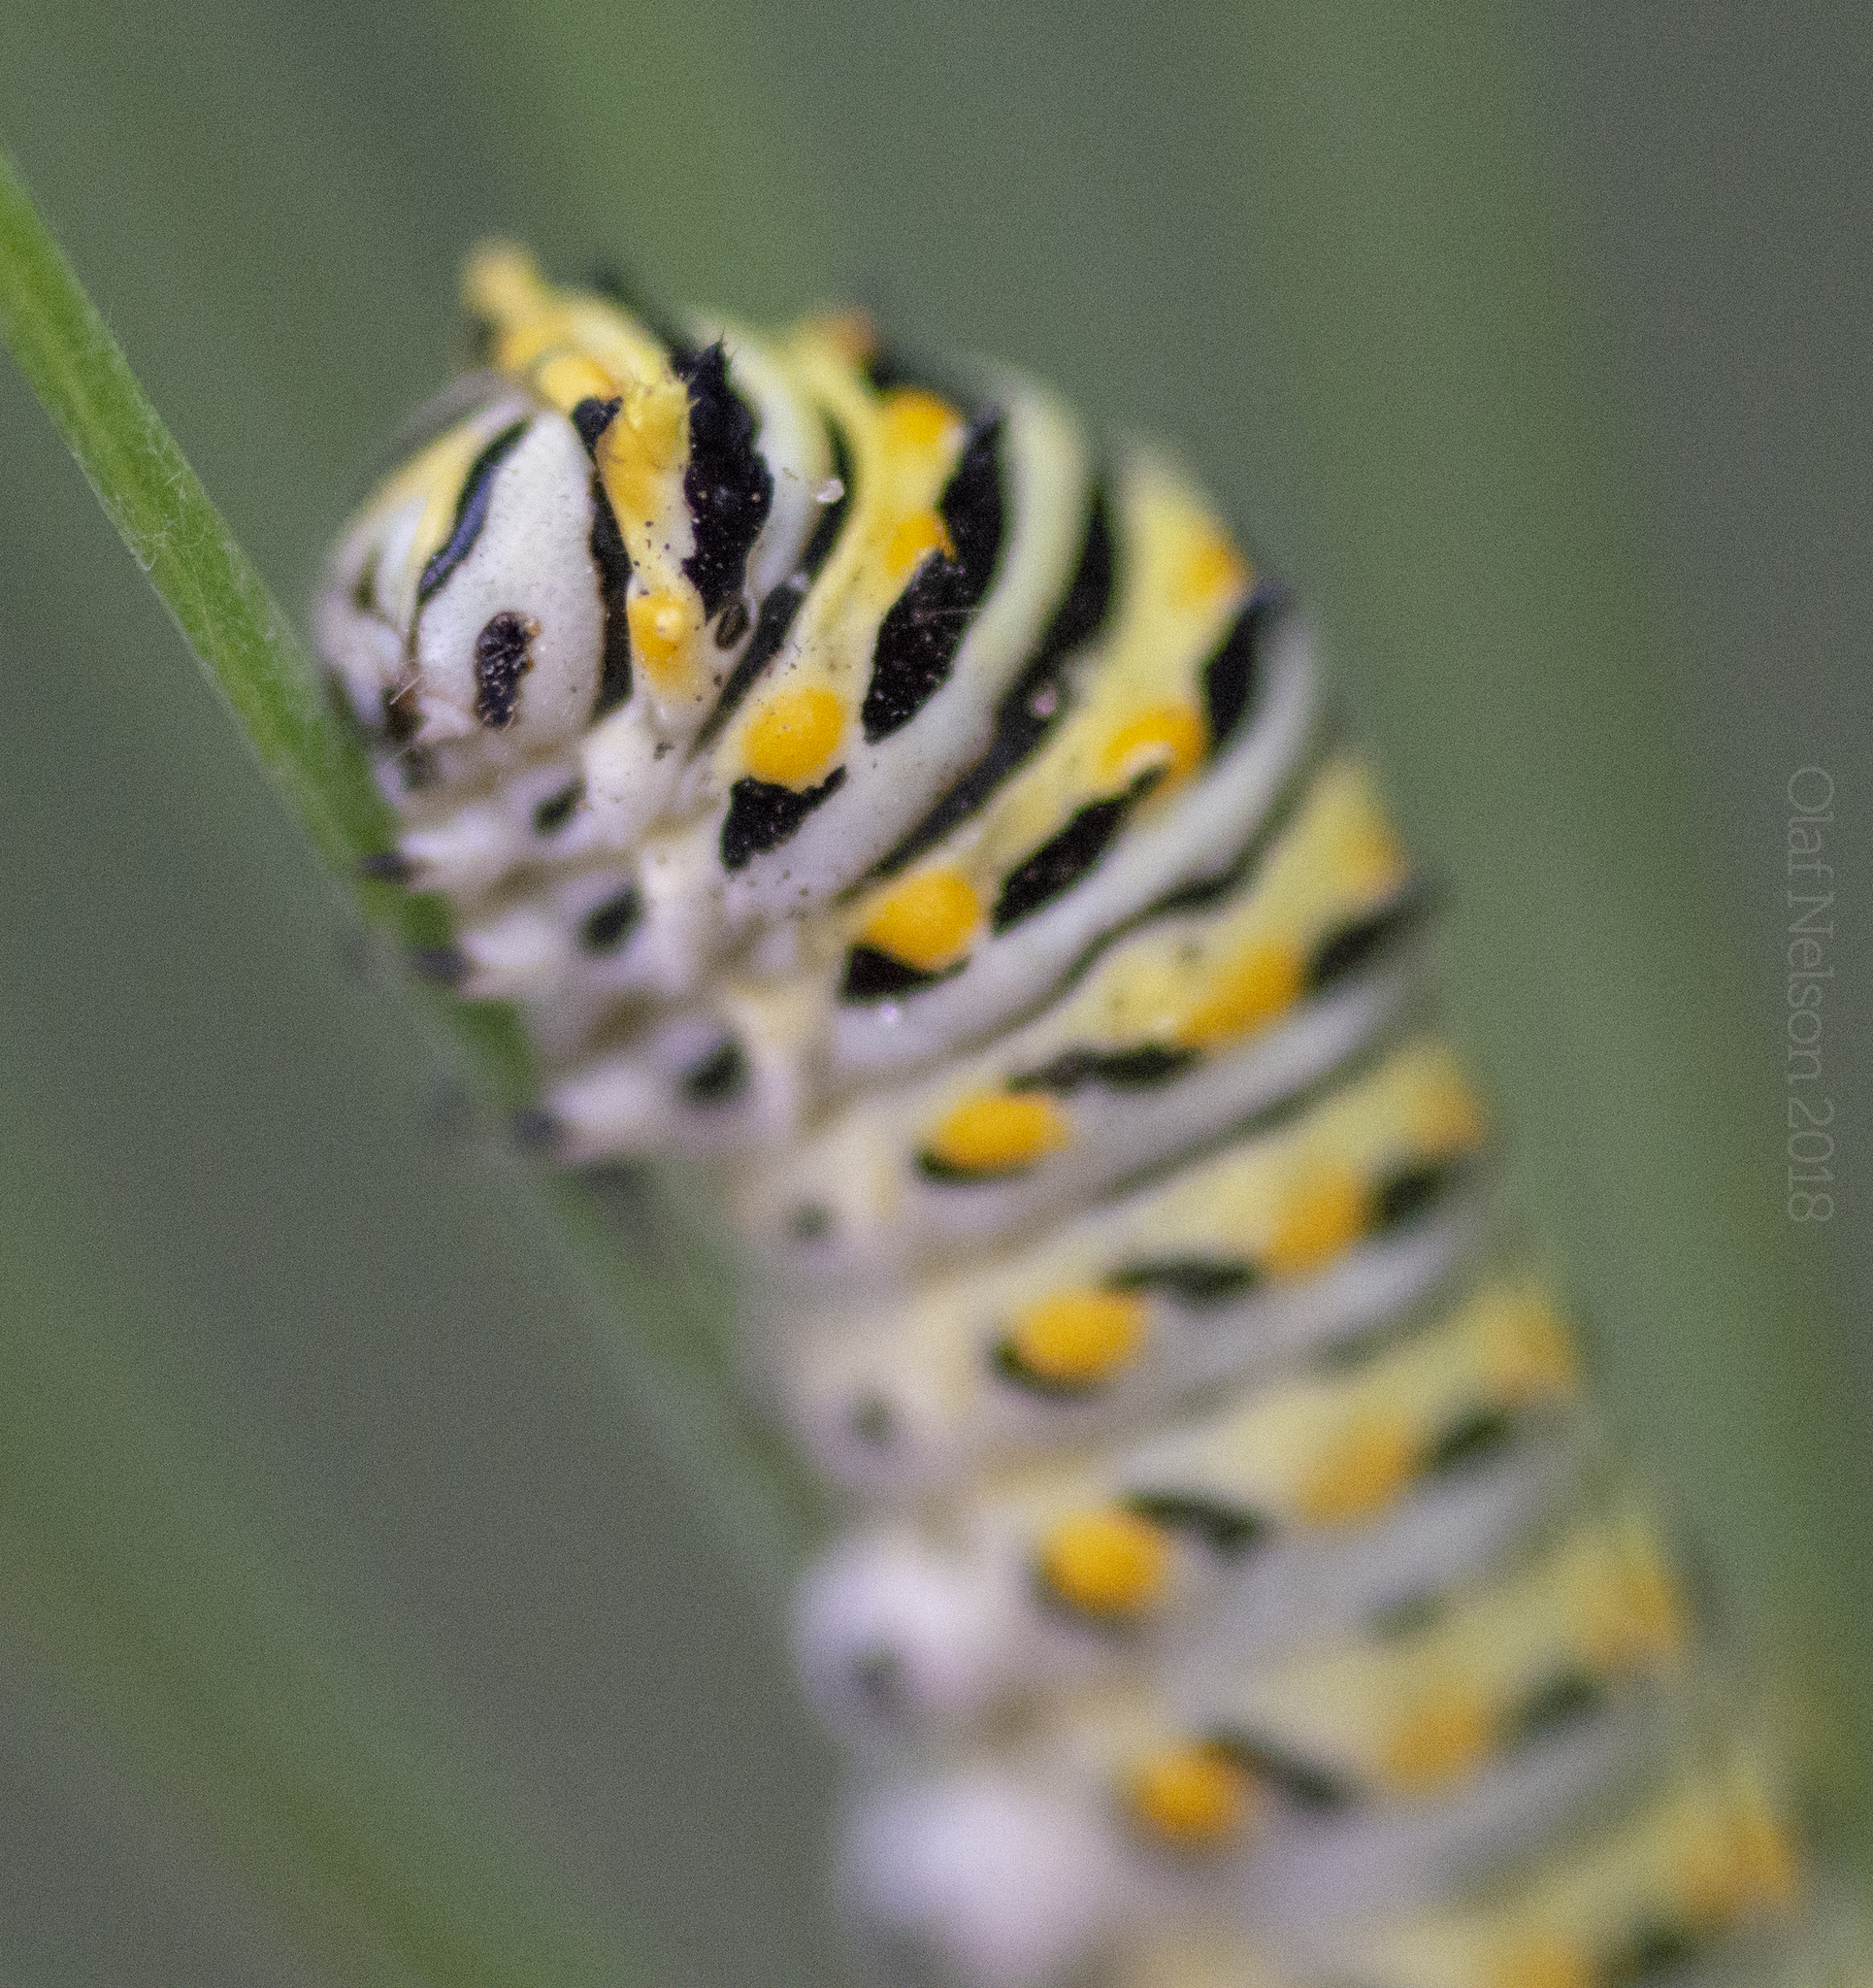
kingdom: Animalia
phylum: Arthropoda
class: Insecta
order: Lepidoptera
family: Papilionidae
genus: Papilio
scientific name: Papilio polyxenes
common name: Black swallowtail
